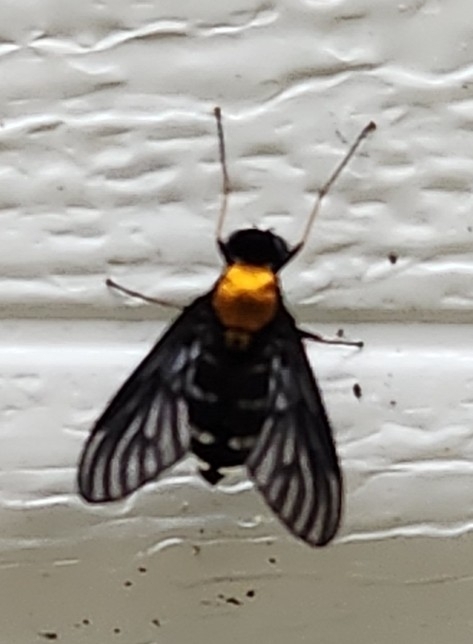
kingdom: Animalia
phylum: Arthropoda
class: Insecta
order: Diptera
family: Rhagionidae
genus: Chrysopilus
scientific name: Chrysopilus thoracicus
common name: Golden-backed snipe fly
